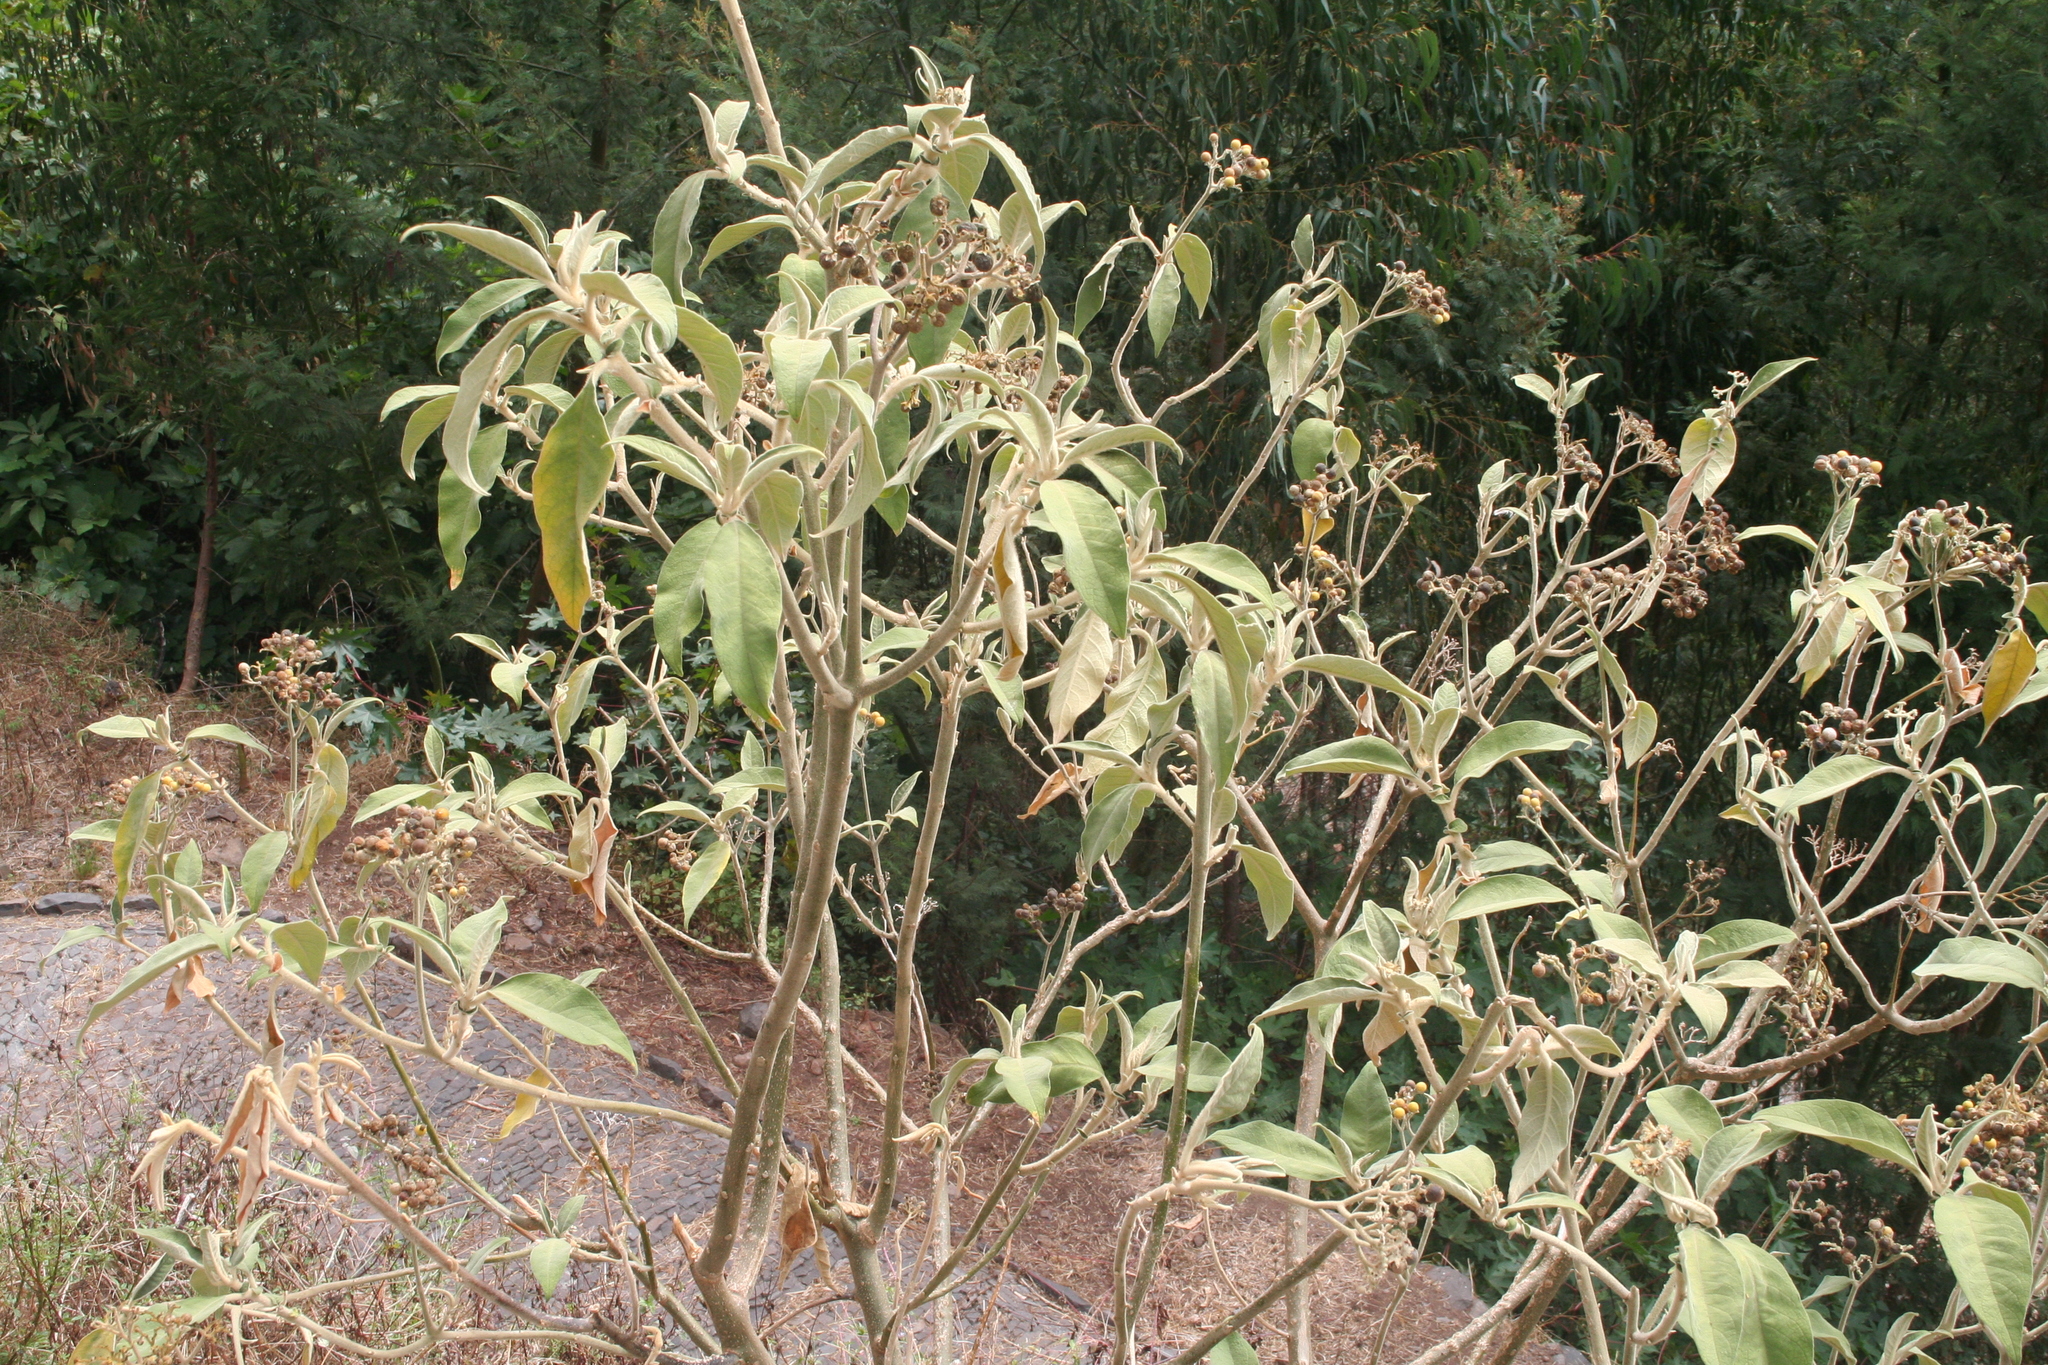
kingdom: Plantae
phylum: Tracheophyta
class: Magnoliopsida
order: Solanales
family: Solanaceae
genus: Solanum
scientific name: Solanum mauritianum
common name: Earleaf nightshade
